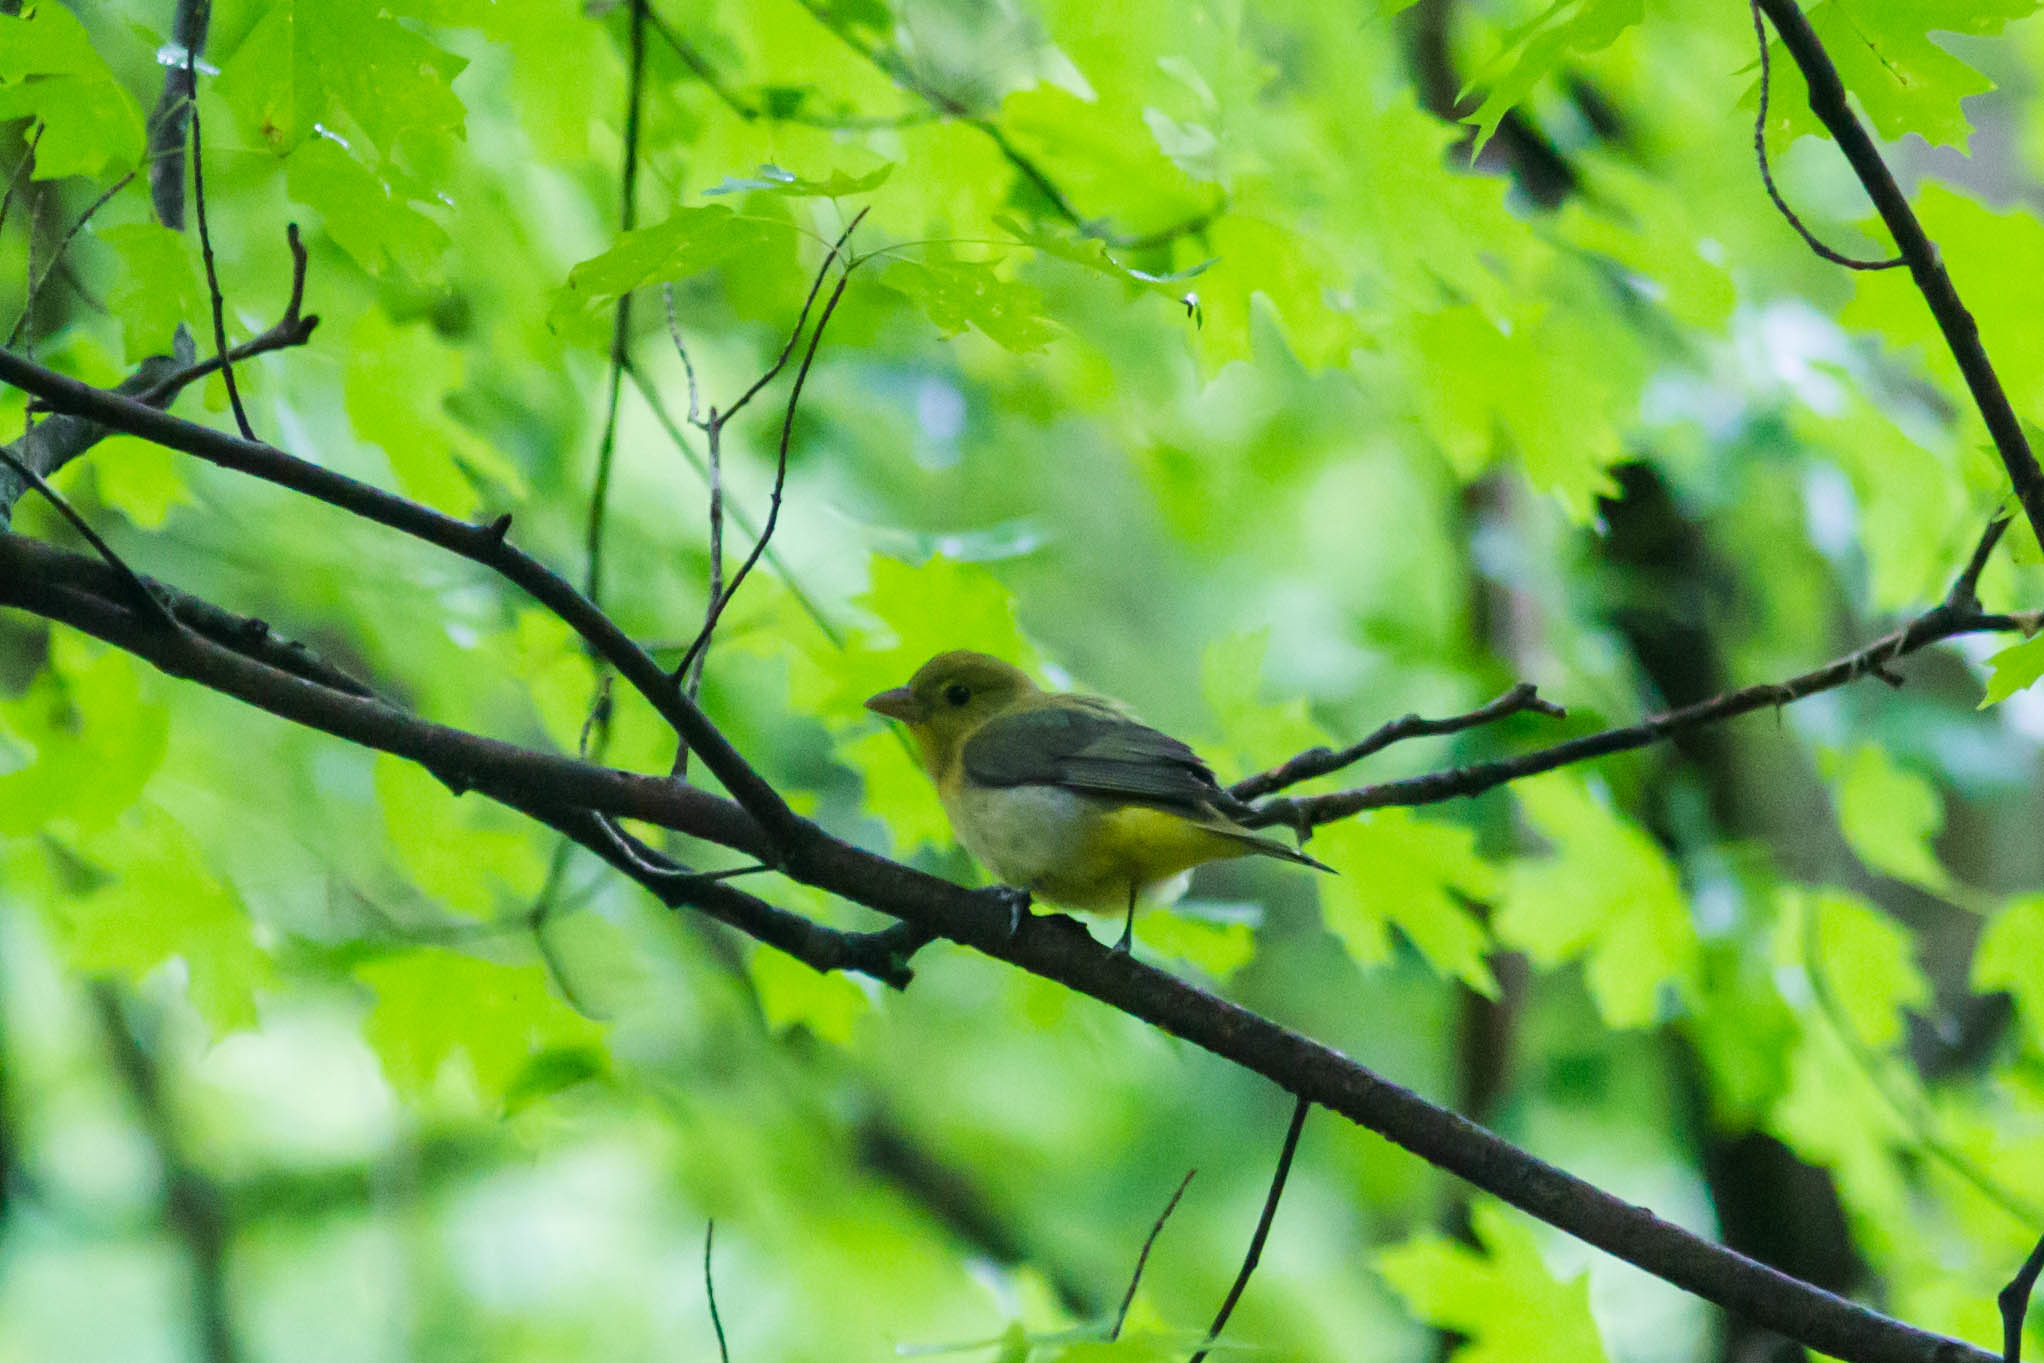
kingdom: Animalia
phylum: Chordata
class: Aves
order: Passeriformes
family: Cardinalidae
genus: Piranga
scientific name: Piranga olivacea
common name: Scarlet tanager
